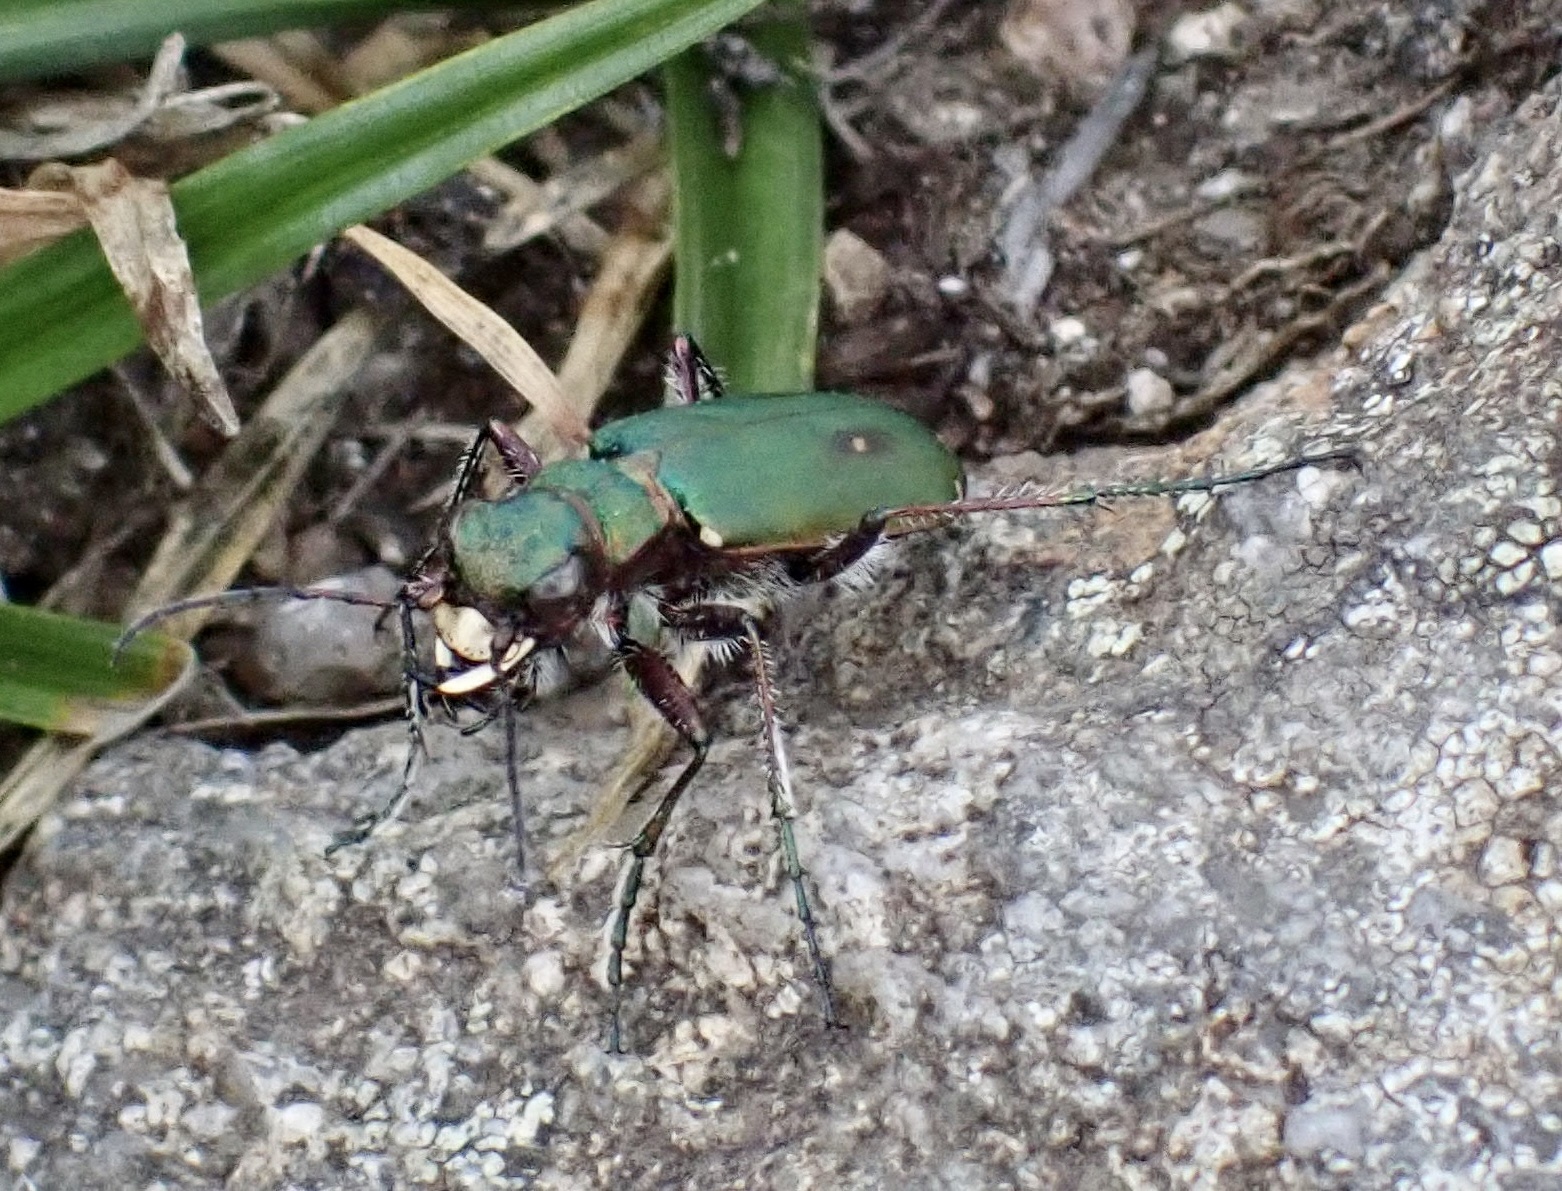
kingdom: Animalia
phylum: Arthropoda
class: Insecta
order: Coleoptera
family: Carabidae
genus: Cicindela
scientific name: Cicindela campestris
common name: Common tiger beetle
